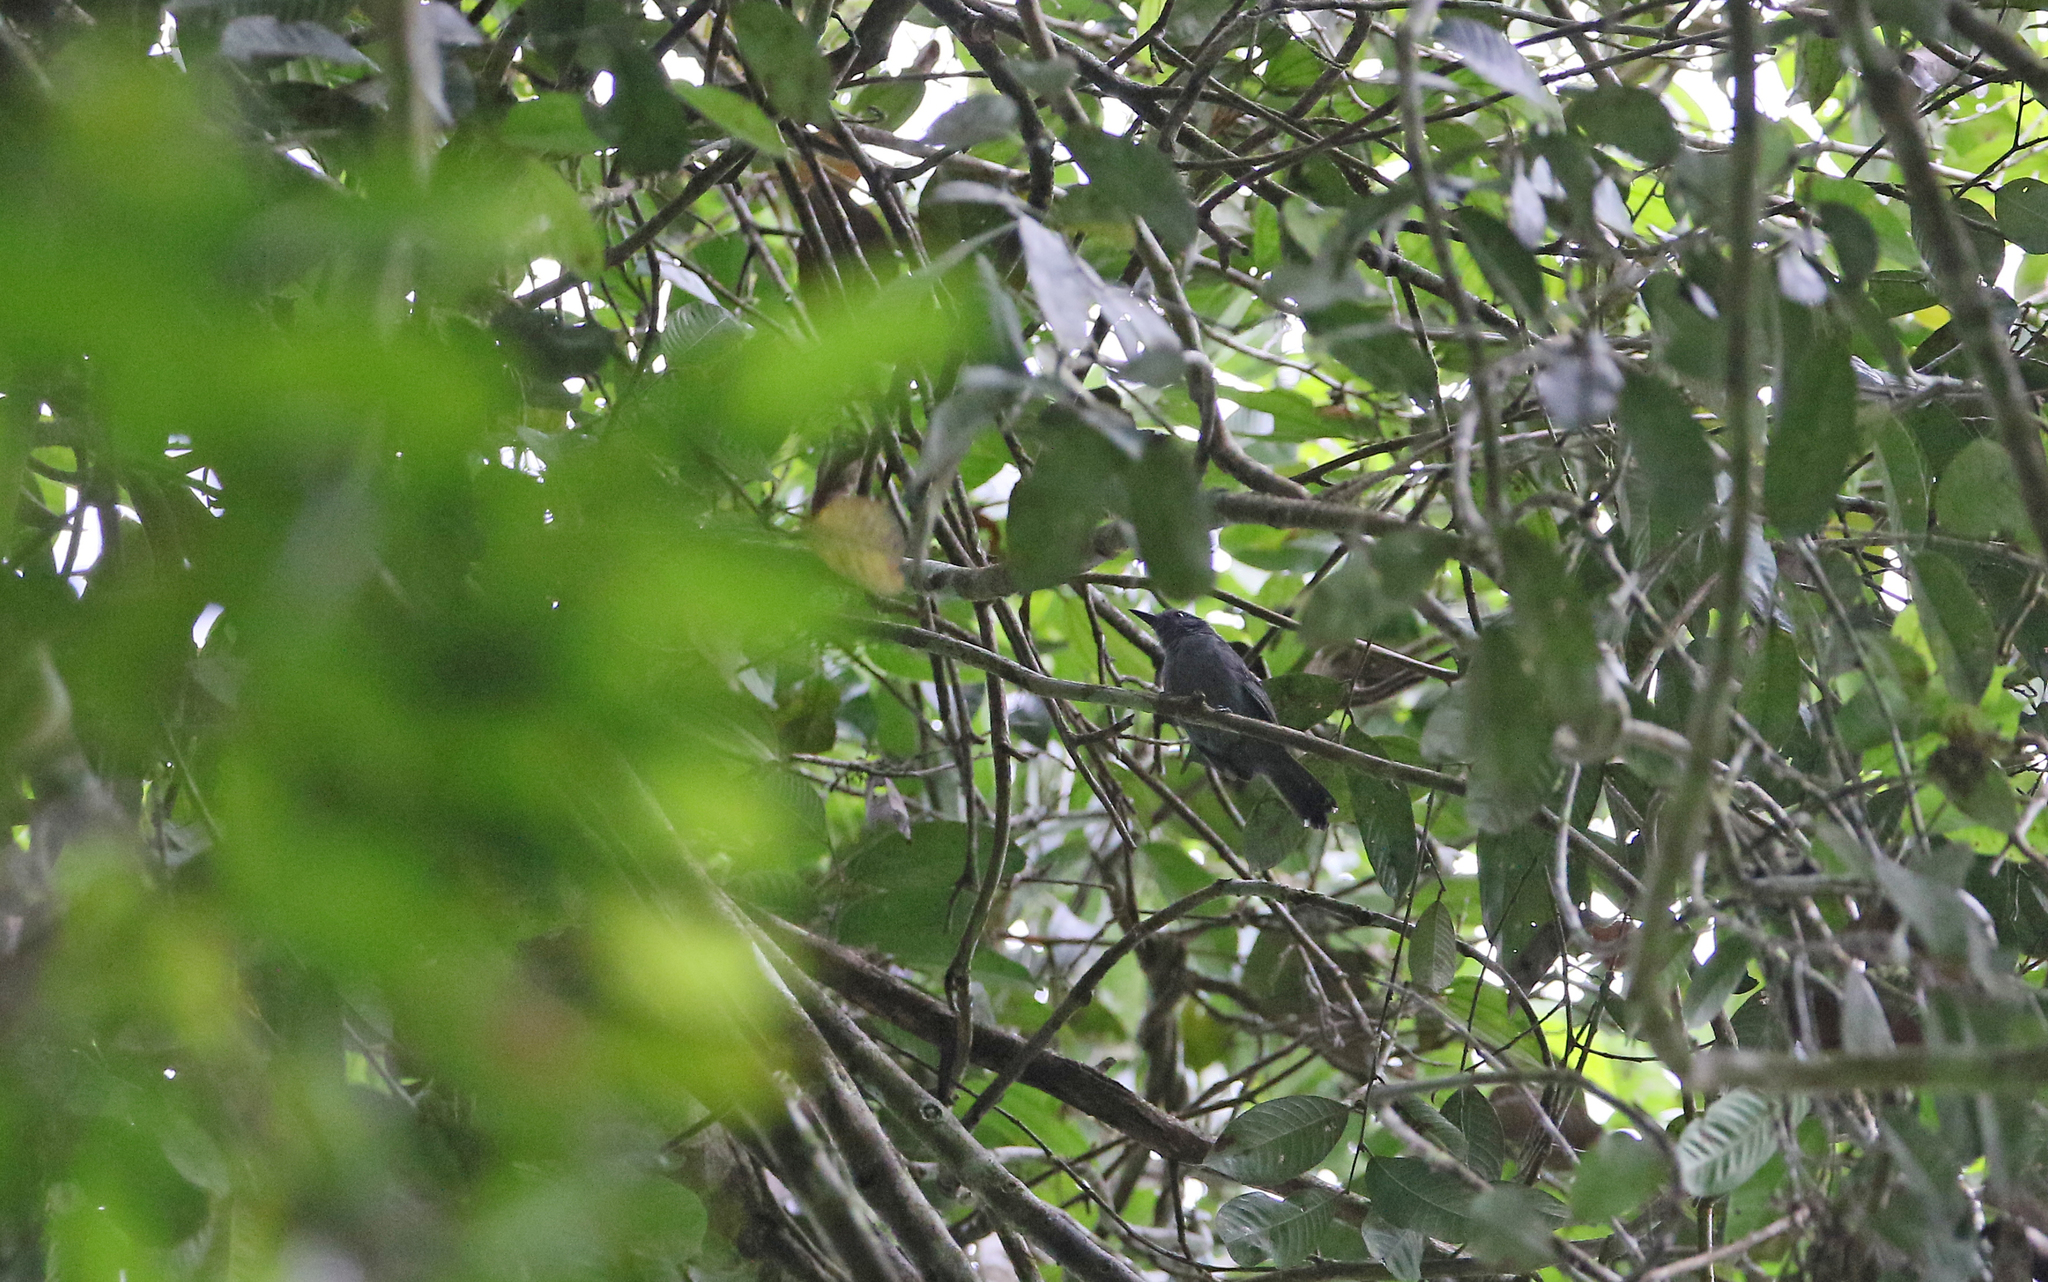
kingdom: Animalia
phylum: Chordata
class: Aves
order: Passeriformes
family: Thamnophilidae
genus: Cercomacra
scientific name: Cercomacra cinerascens
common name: Grey antbird
